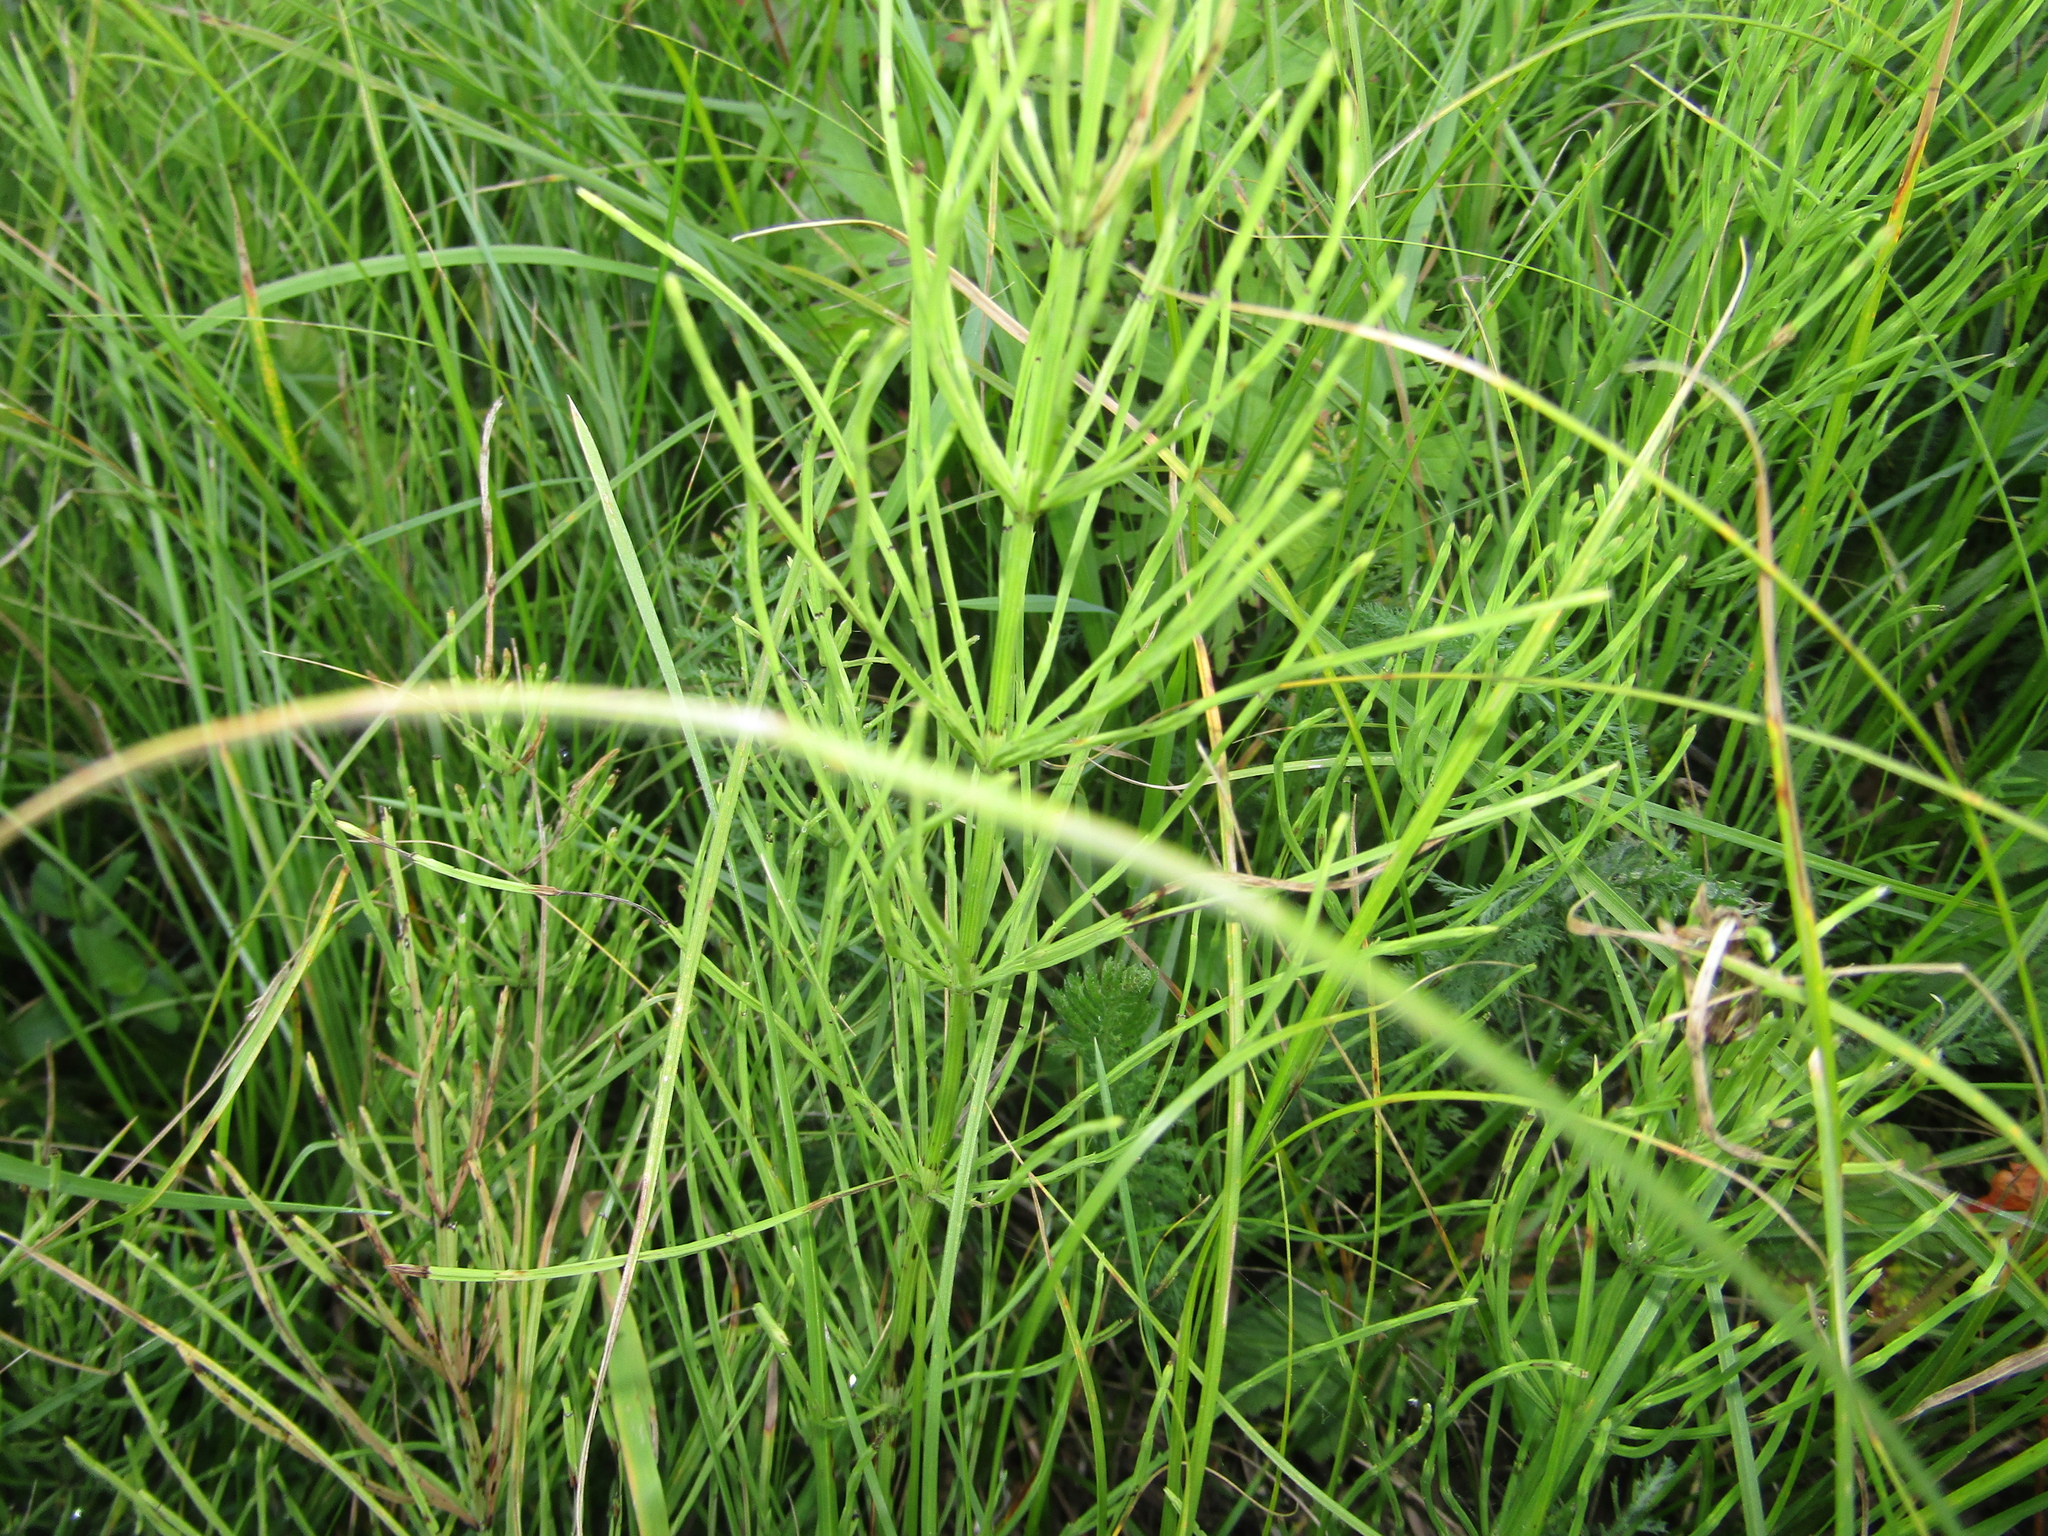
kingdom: Plantae
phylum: Tracheophyta
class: Polypodiopsida
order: Equisetales
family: Equisetaceae
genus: Equisetum
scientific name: Equisetum arvense
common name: Field horsetail
